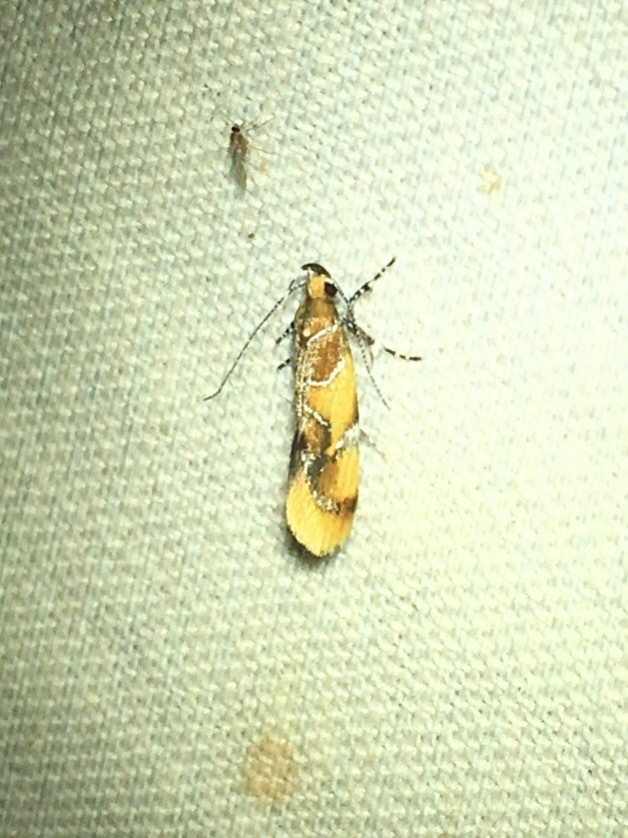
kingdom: Animalia
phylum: Arthropoda
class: Insecta
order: Lepidoptera
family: Oecophoridae
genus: Callima
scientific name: Callima argenticinctella
